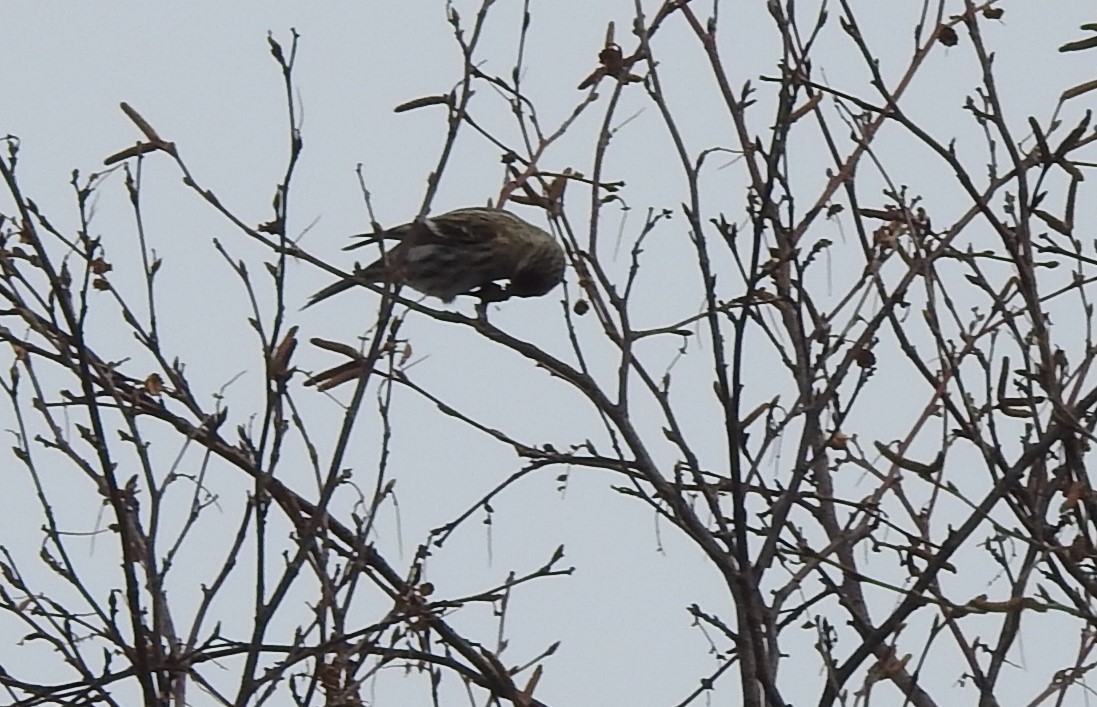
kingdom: Animalia
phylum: Chordata
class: Aves
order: Passeriformes
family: Fringillidae
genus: Acanthis
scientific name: Acanthis flammea
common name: Common redpoll
